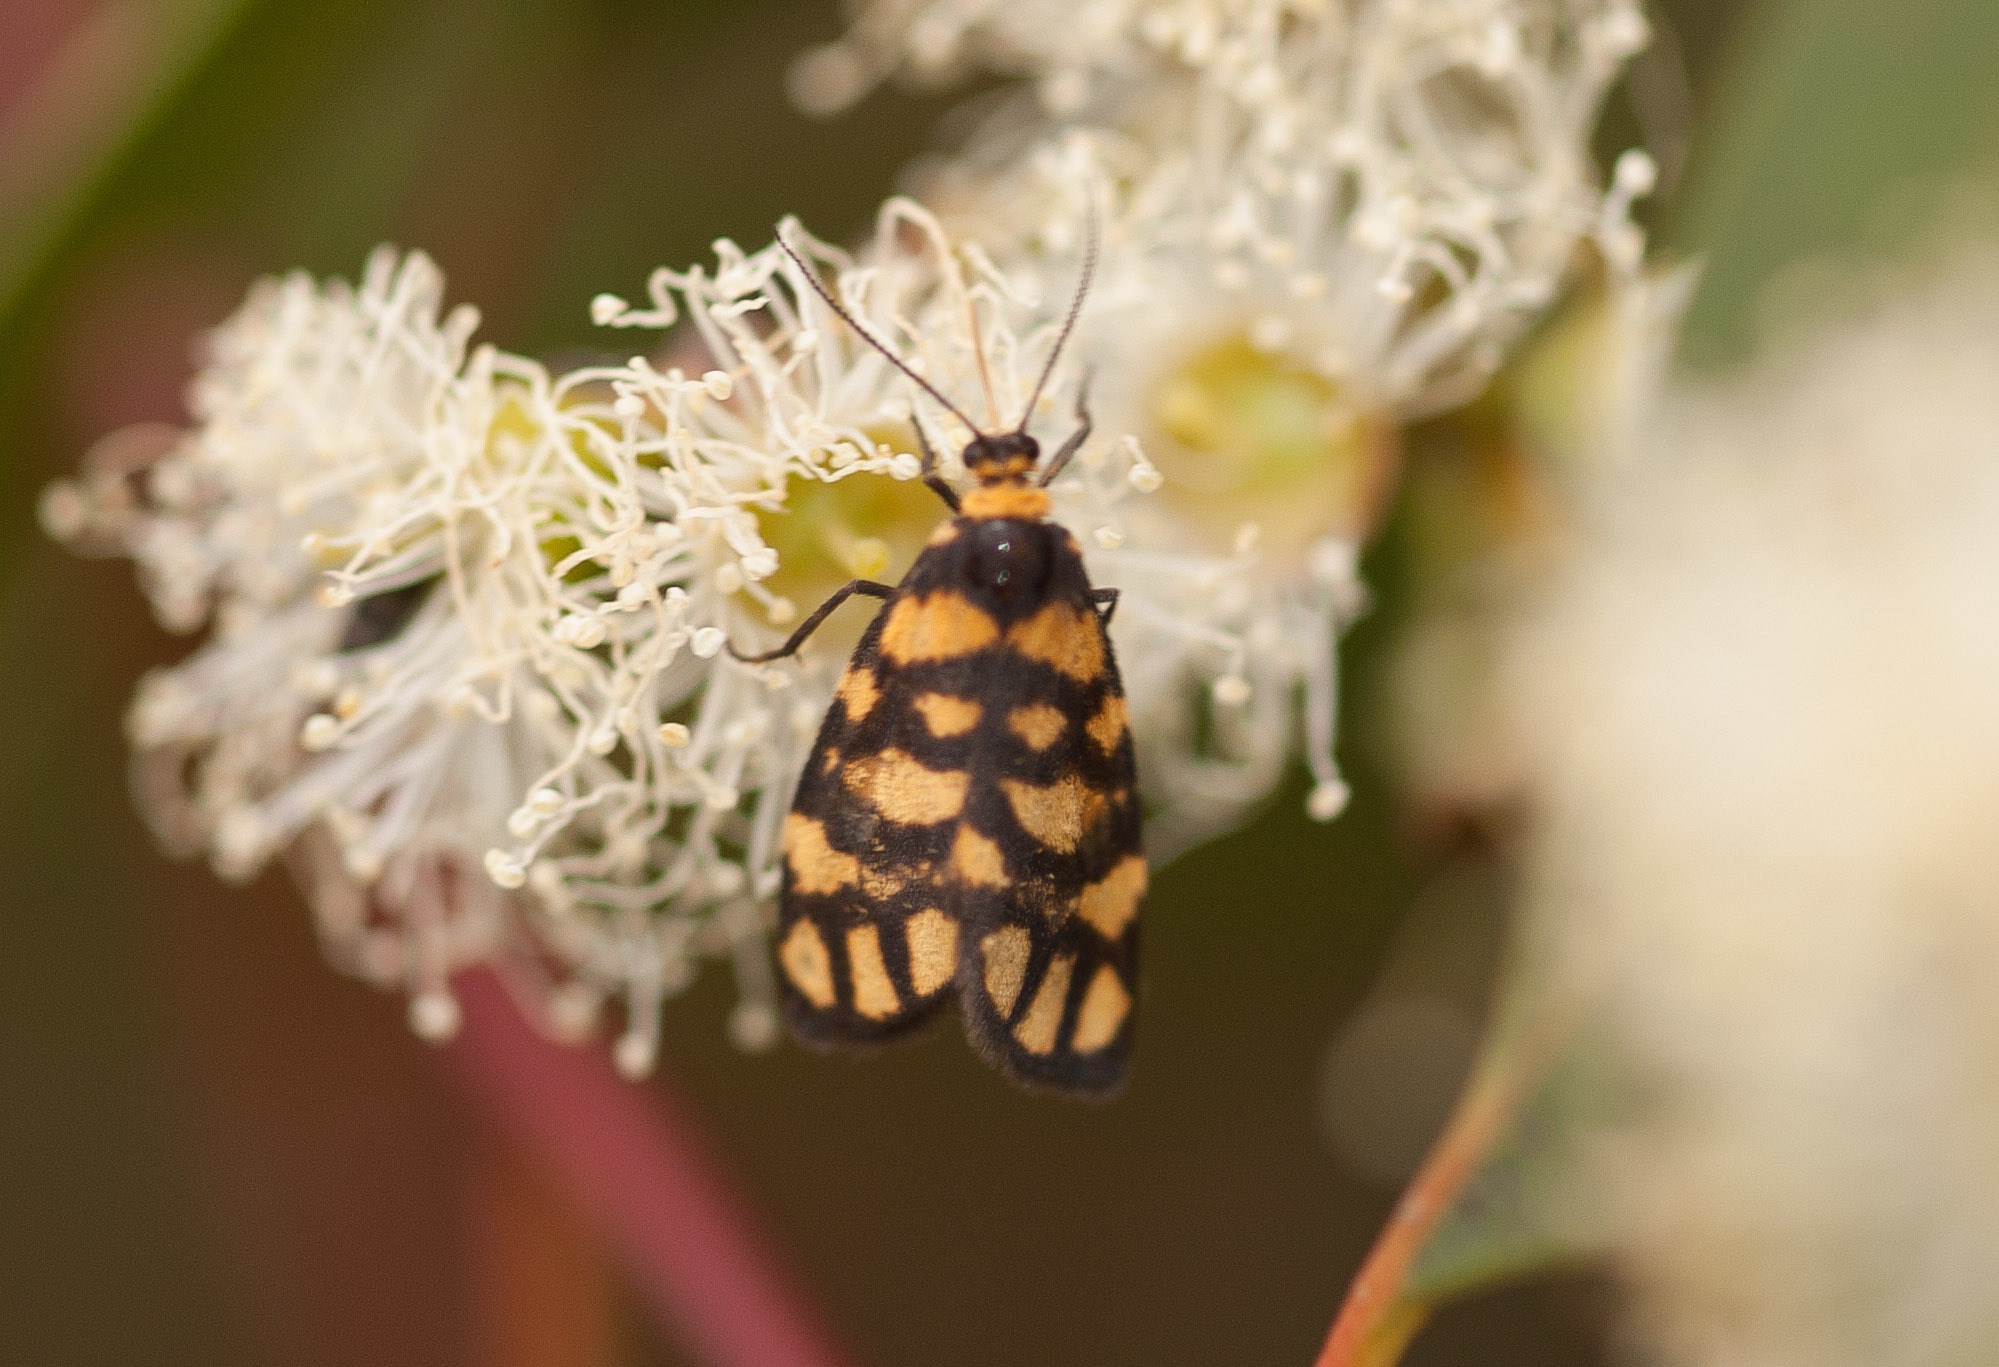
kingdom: Animalia
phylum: Arthropoda
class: Insecta
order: Lepidoptera
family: Erebidae
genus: Asura
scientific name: Asura lydia
